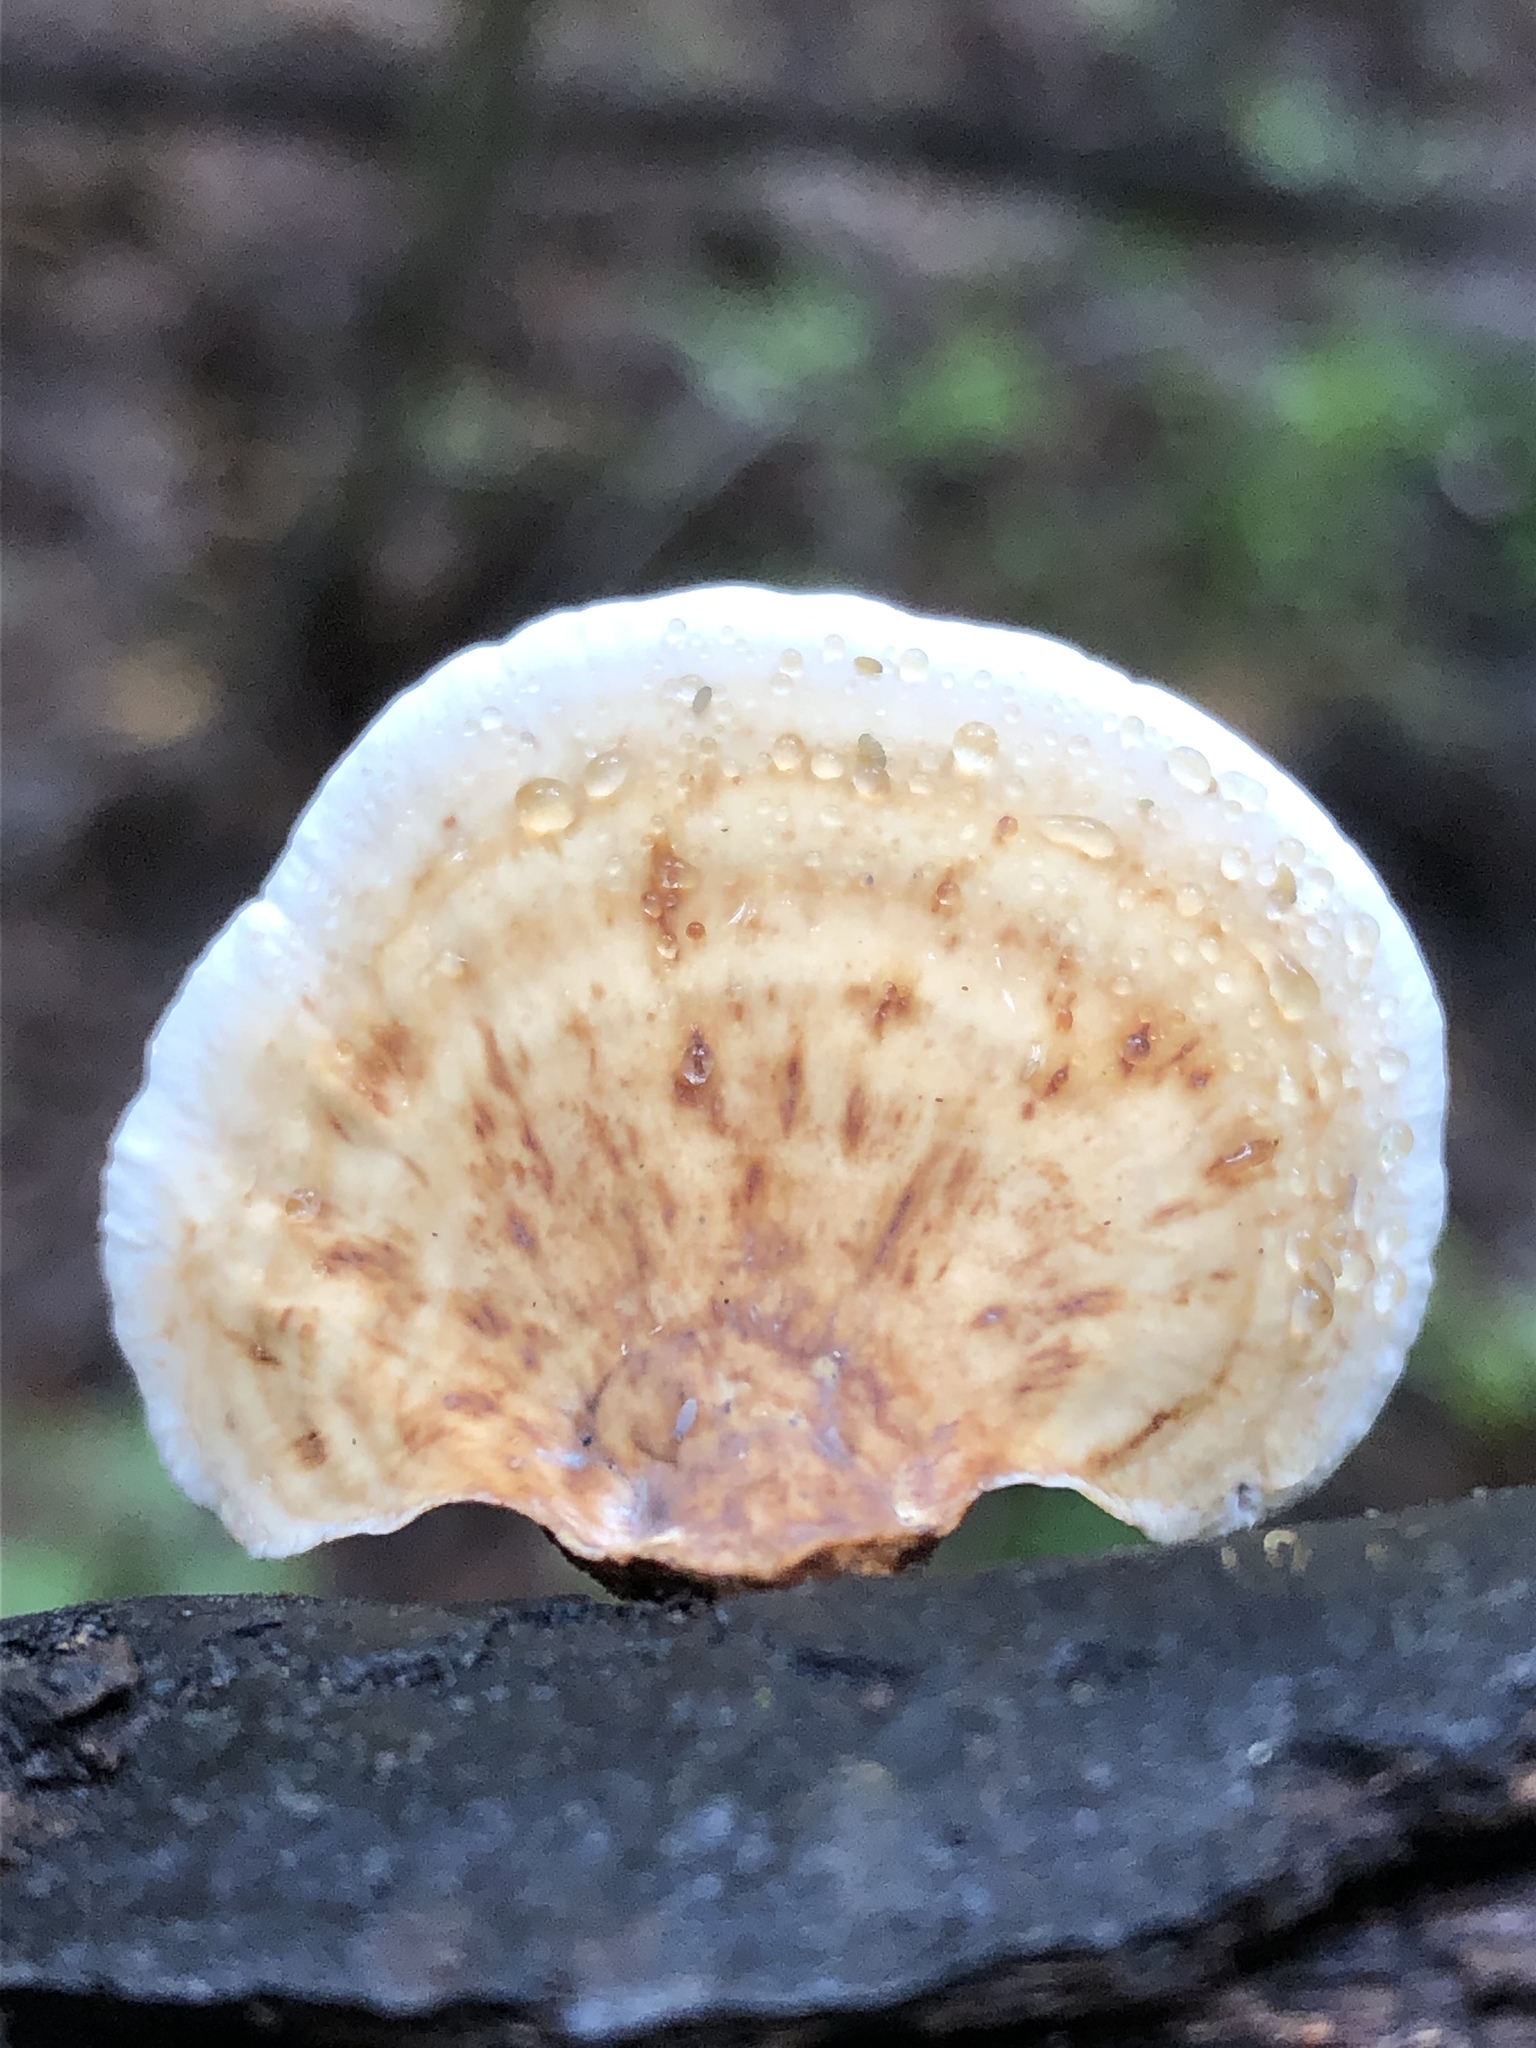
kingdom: Fungi
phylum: Basidiomycota
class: Agaricomycetes
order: Russulales
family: Stereaceae
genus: Stereum
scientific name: Stereum ostrea
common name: False turkeytail
